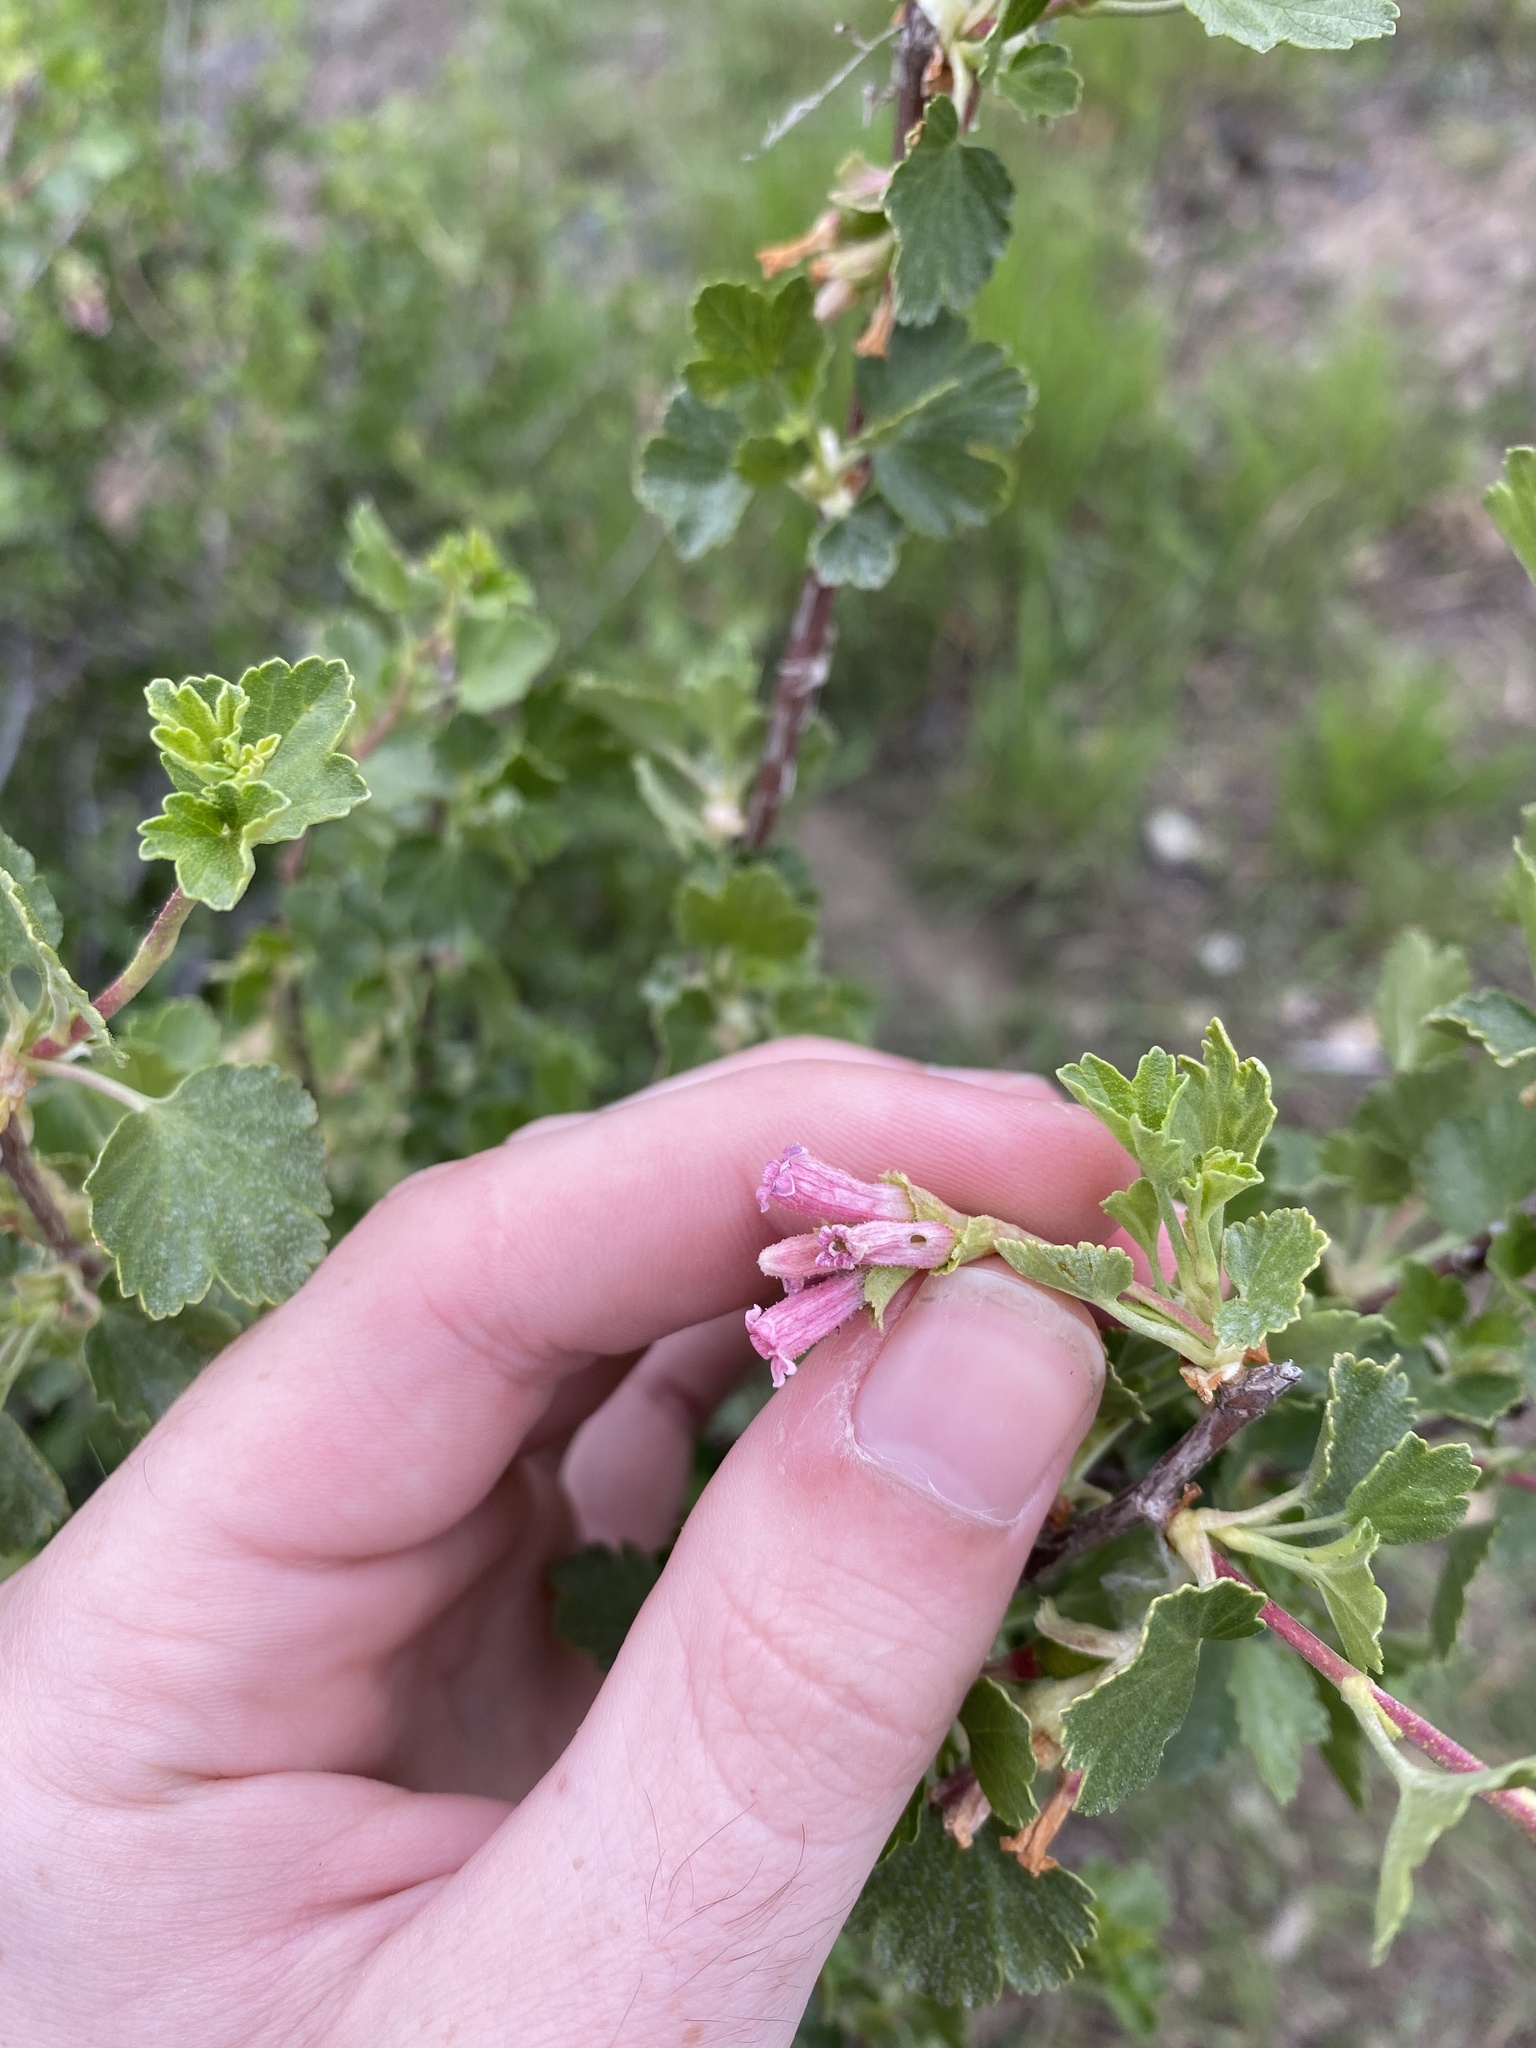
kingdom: Plantae
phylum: Tracheophyta
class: Magnoliopsida
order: Saxifragales
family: Grossulariaceae
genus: Ribes
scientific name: Ribes cereum
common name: Wax currant
